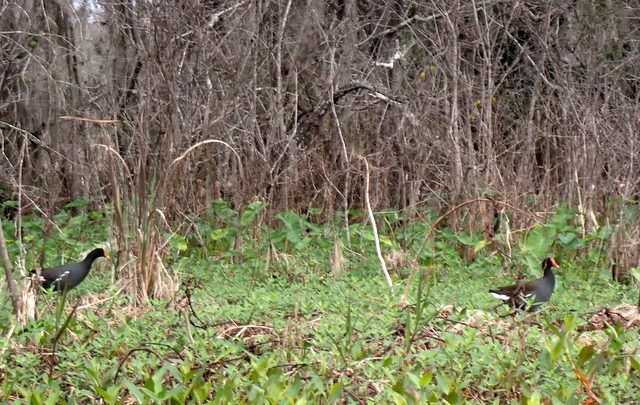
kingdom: Animalia
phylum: Chordata
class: Aves
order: Gruiformes
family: Rallidae
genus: Gallinula
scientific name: Gallinula chloropus
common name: Common moorhen
